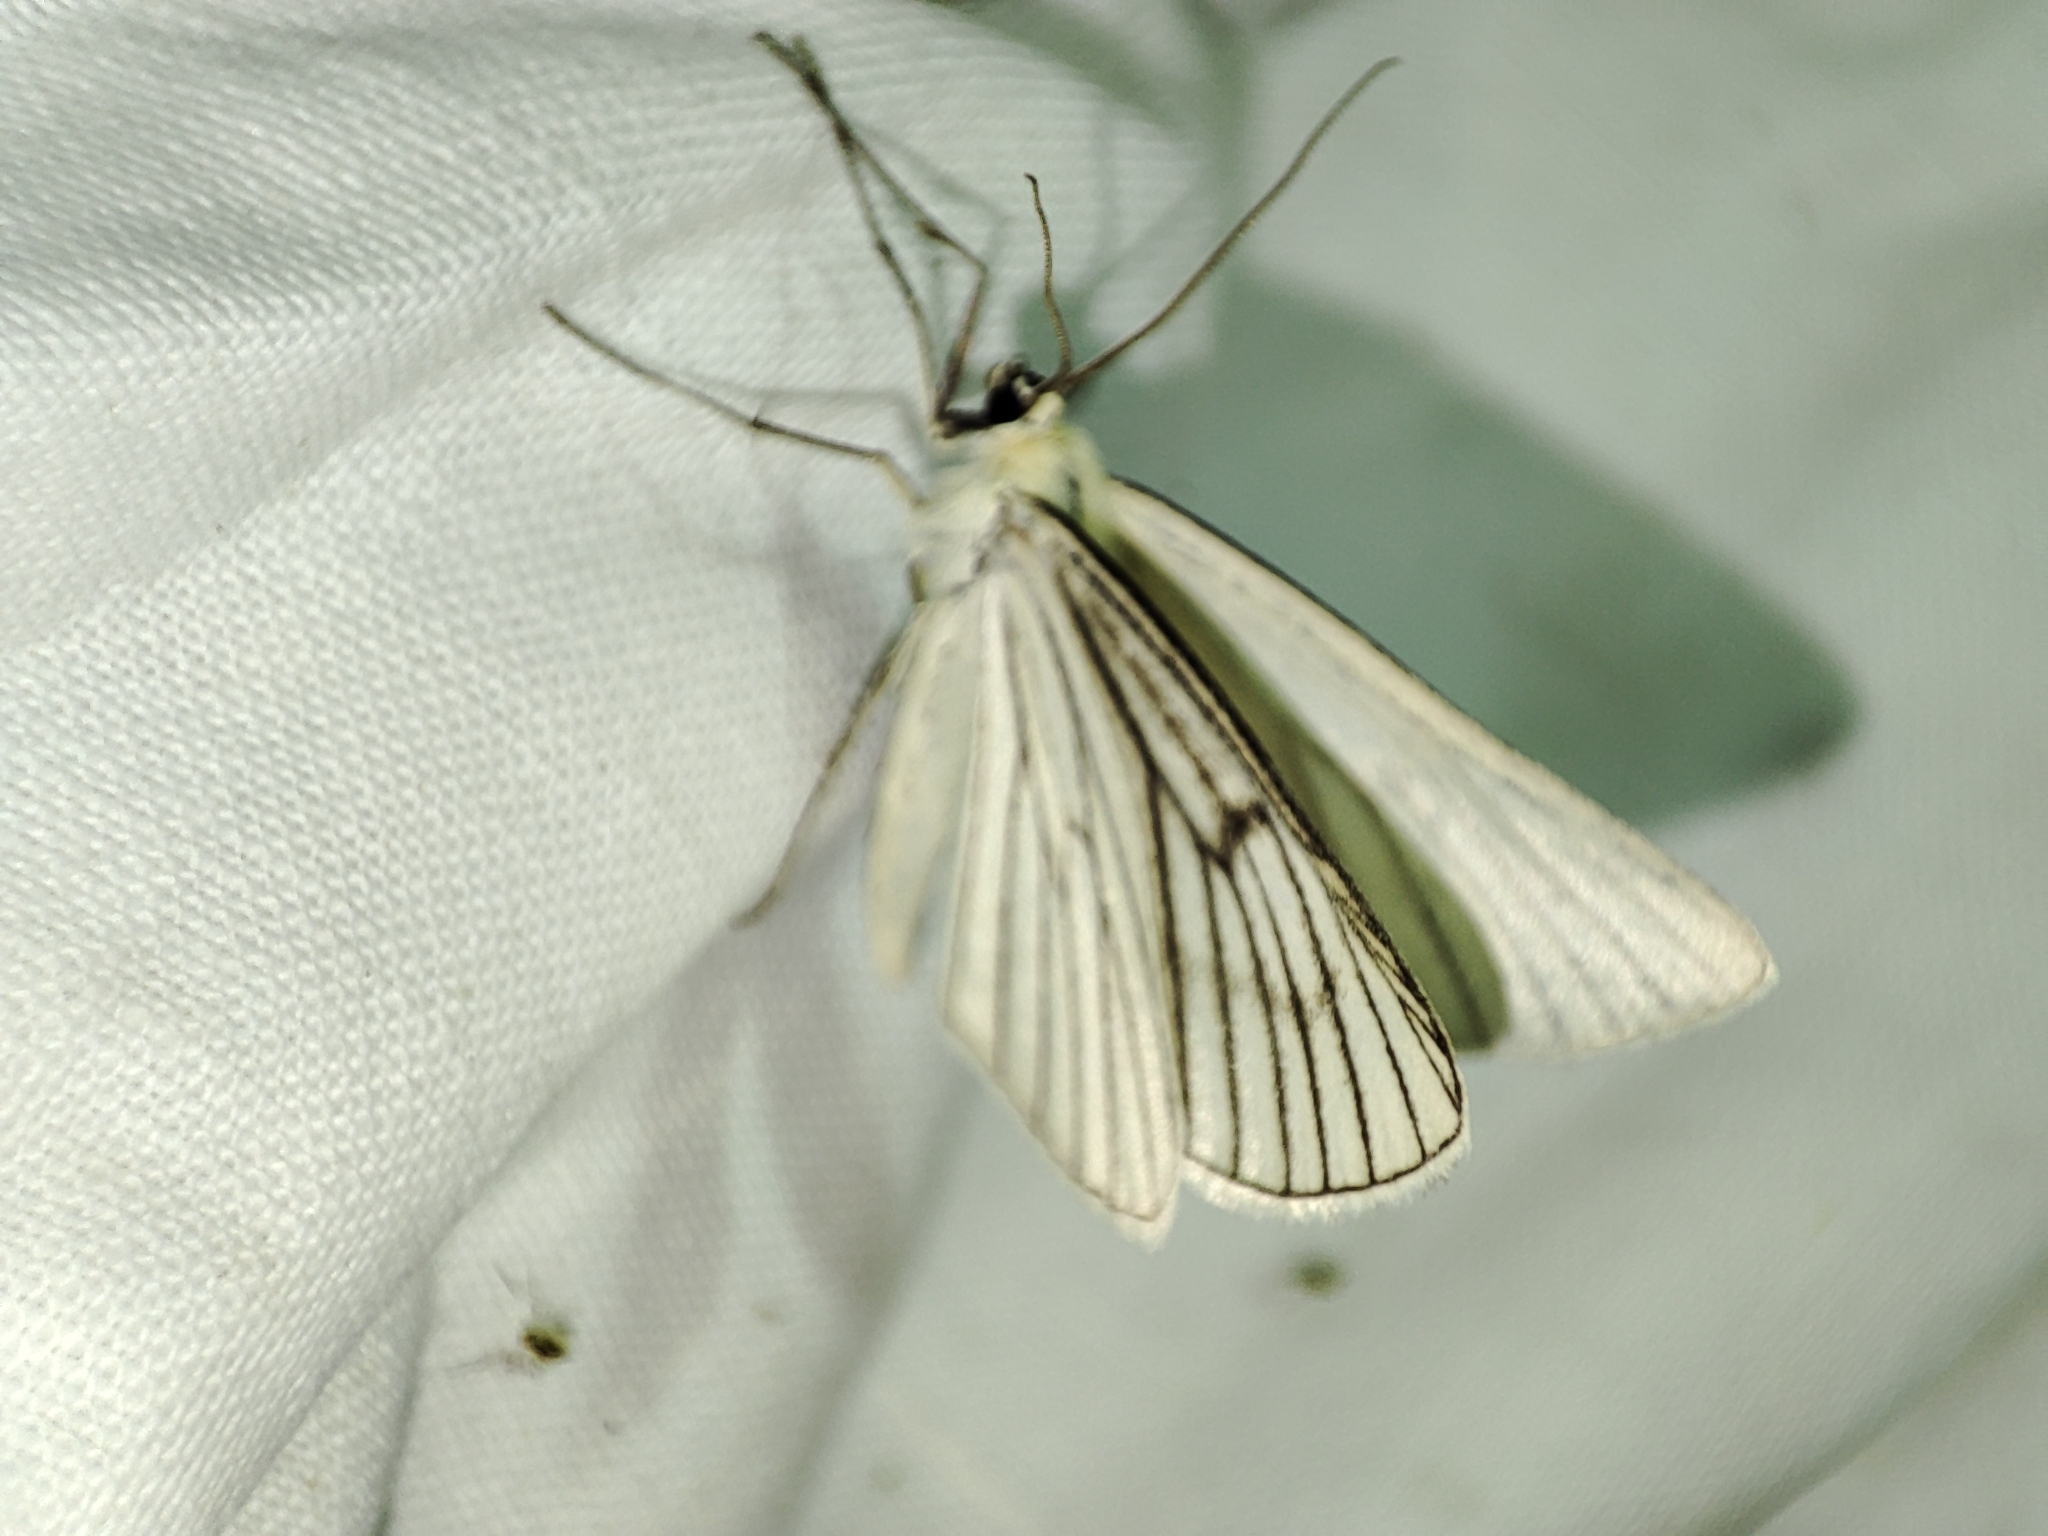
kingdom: Animalia
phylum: Arthropoda
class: Insecta
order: Lepidoptera
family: Geometridae
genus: Siona
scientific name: Siona lineata
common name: Black-veined moth
